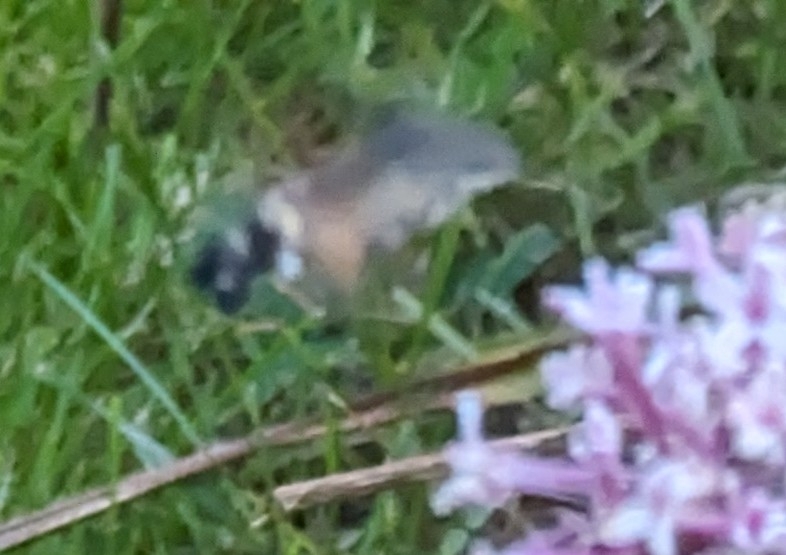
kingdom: Animalia
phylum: Arthropoda
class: Insecta
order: Lepidoptera
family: Sphingidae
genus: Macroglossum
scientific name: Macroglossum stellatarum
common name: Humming-bird hawk-moth
